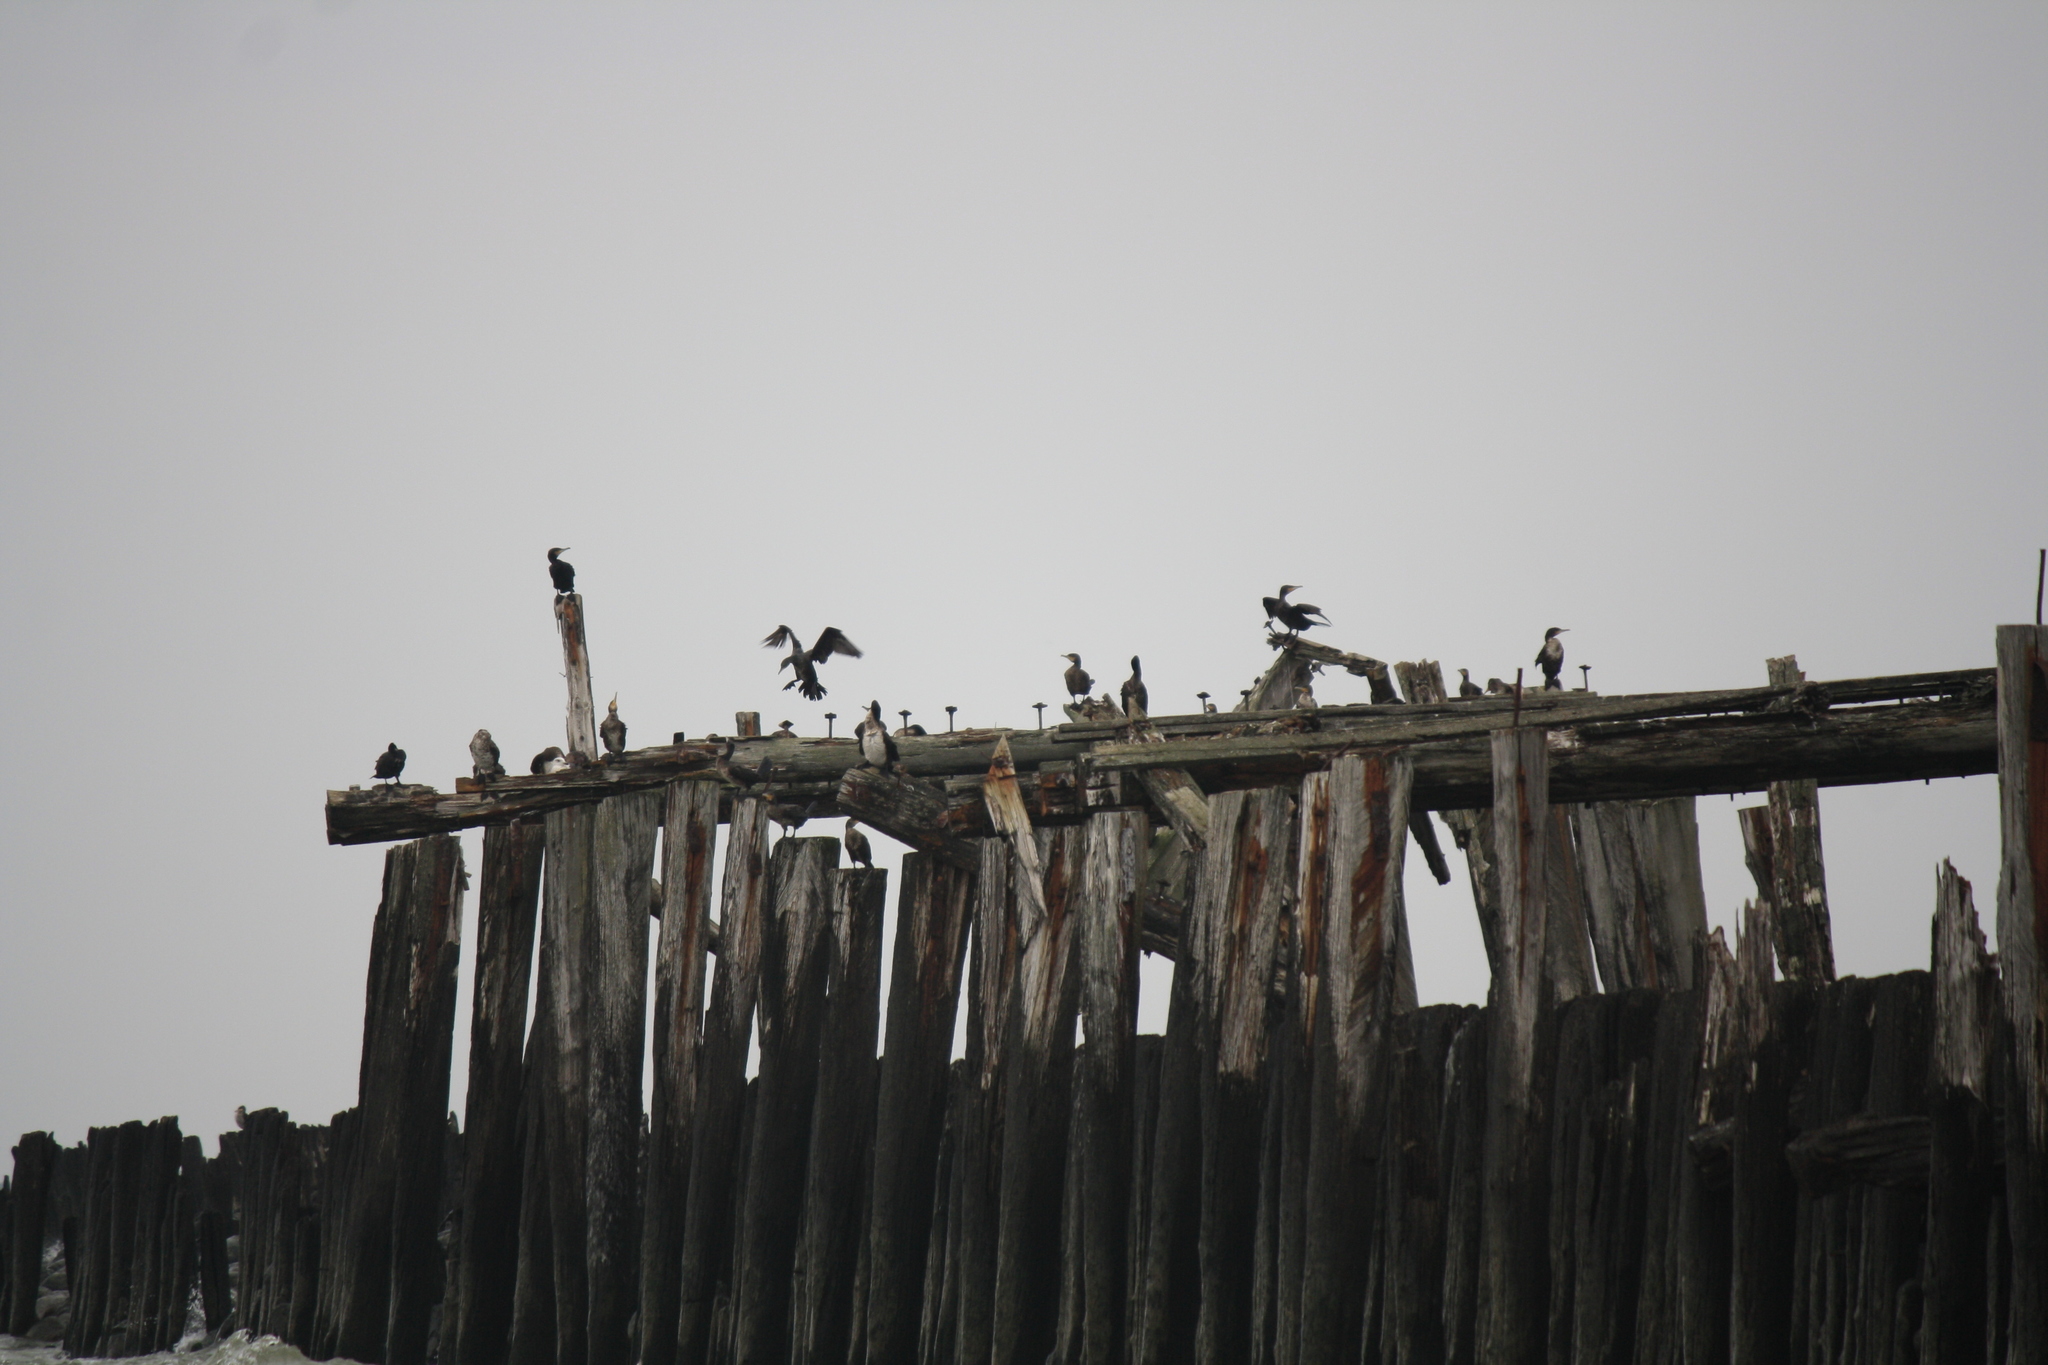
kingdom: Animalia
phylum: Chordata
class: Aves
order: Suliformes
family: Phalacrocoracidae
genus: Phalacrocorax
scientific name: Phalacrocorax carbo
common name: Great cormorant
